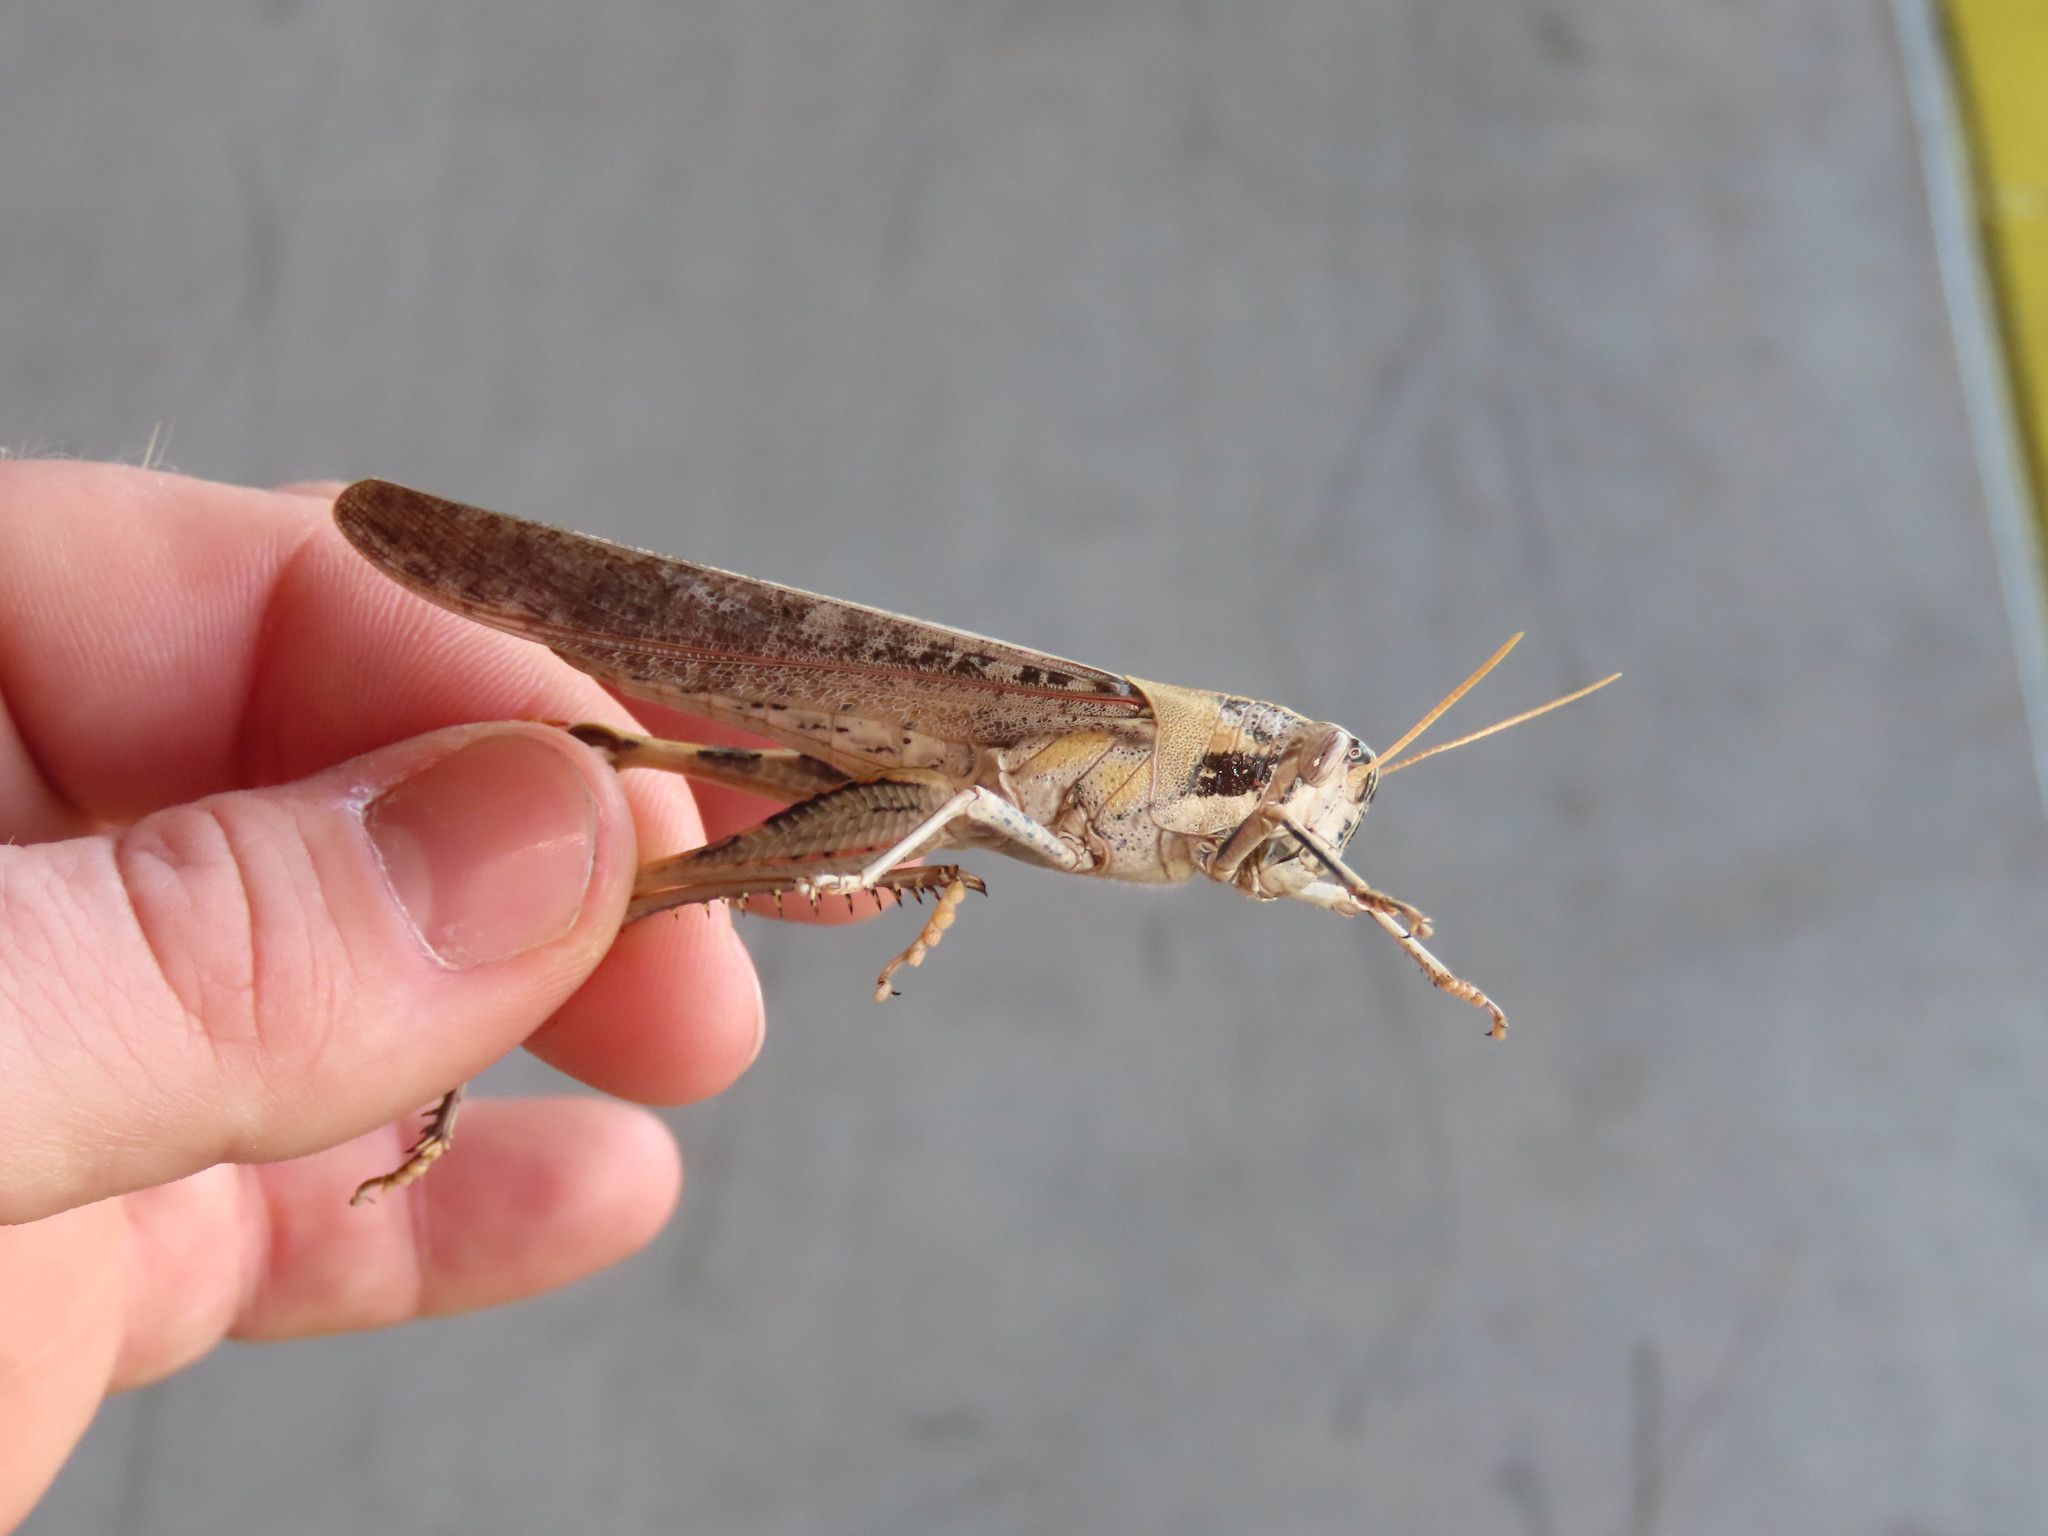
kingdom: Animalia
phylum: Arthropoda
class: Insecta
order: Orthoptera
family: Acrididae
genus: Schistocerca
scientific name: Schistocerca nitens
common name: Vagrant grasshopper
